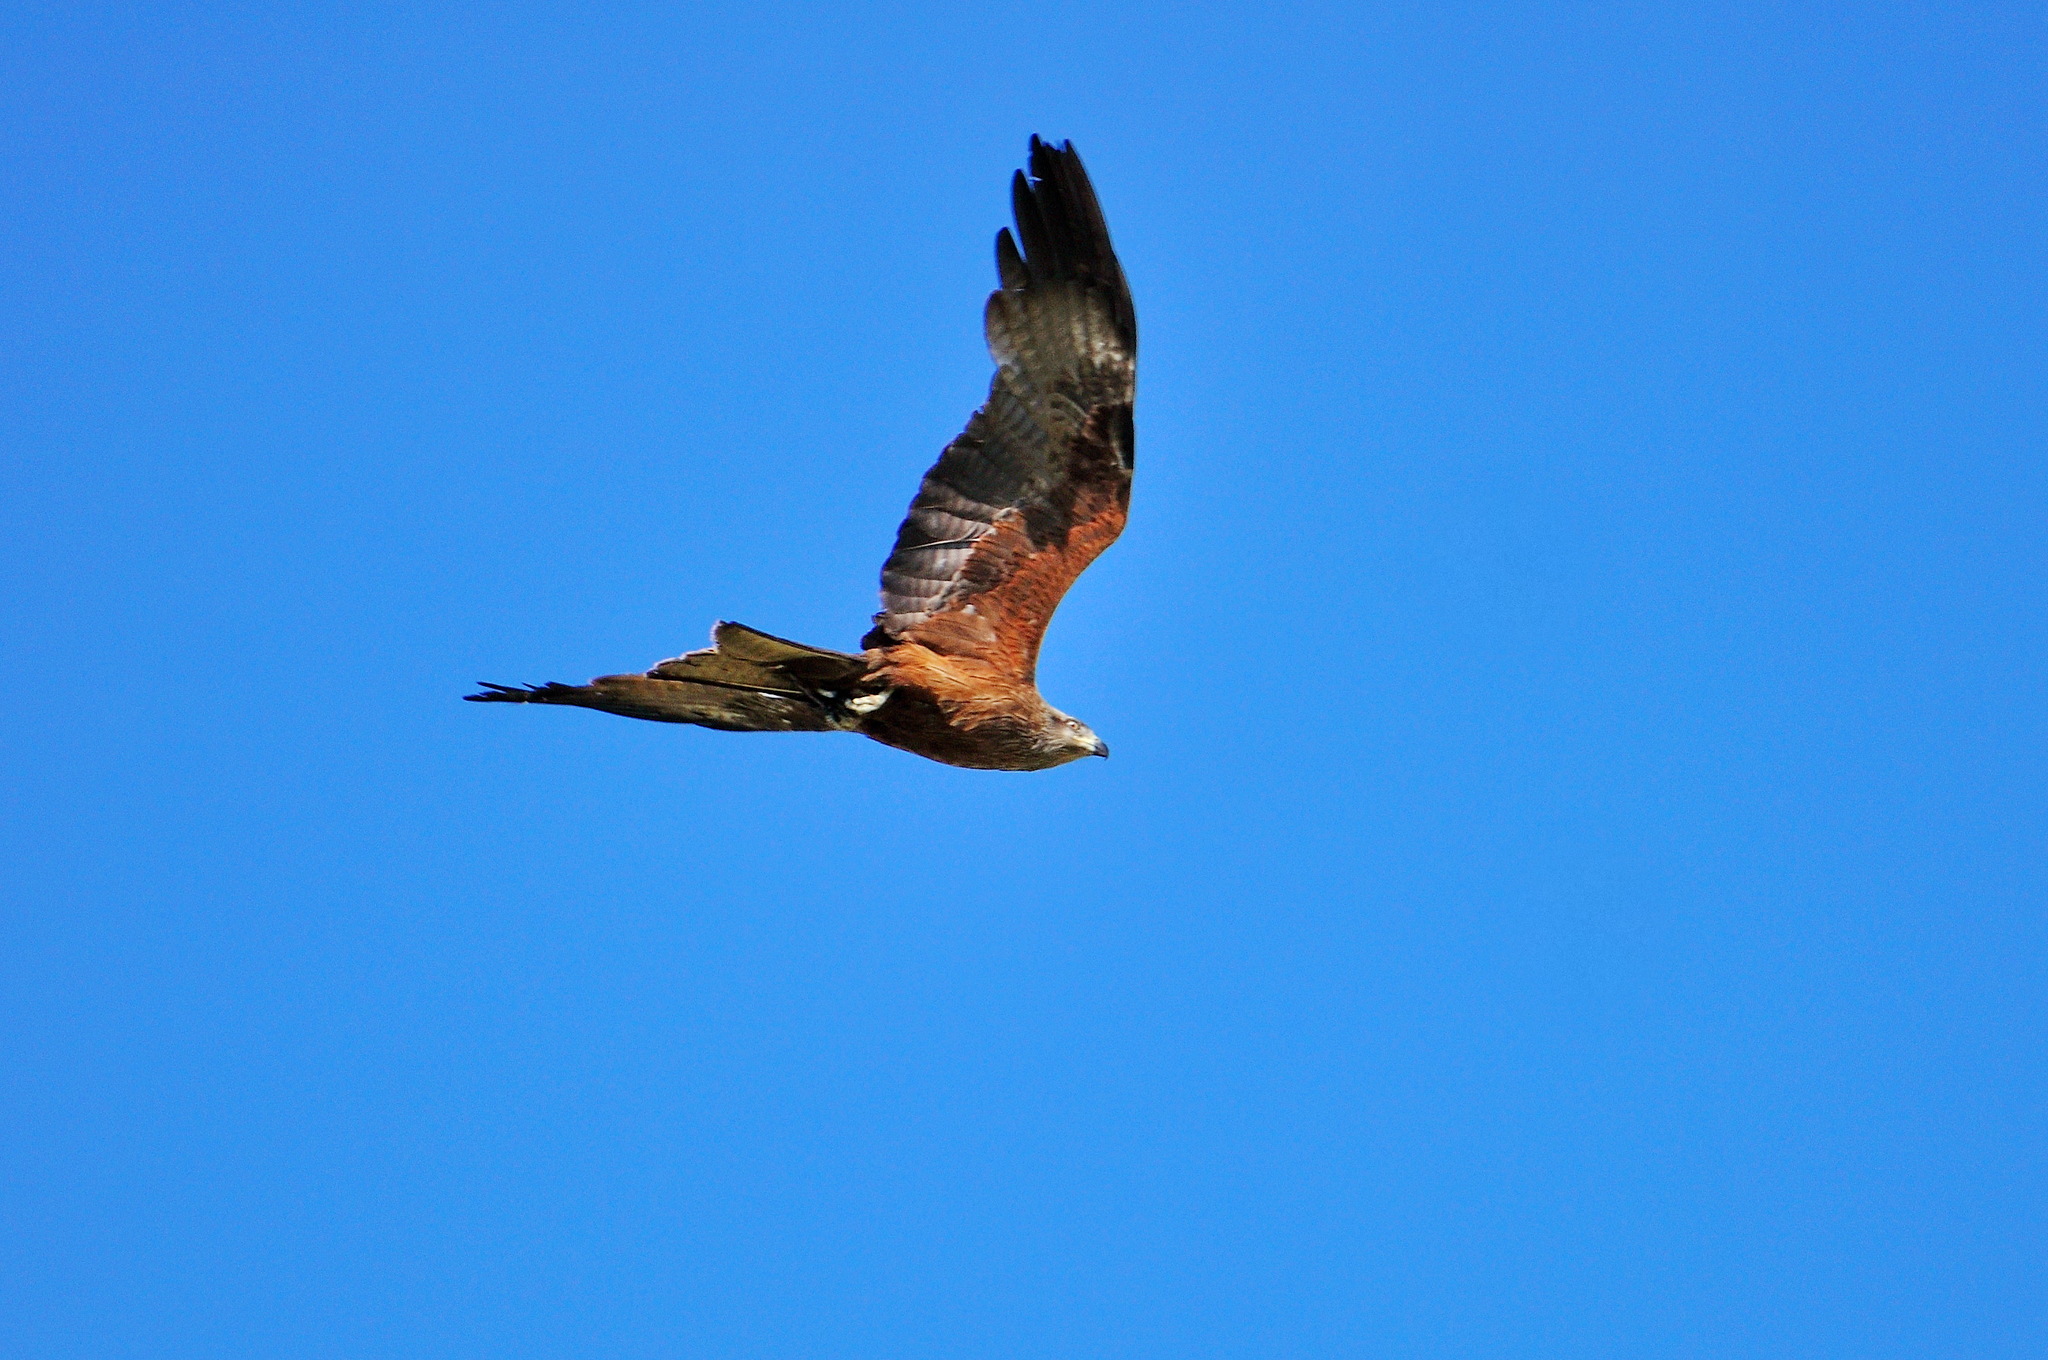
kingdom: Animalia
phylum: Chordata
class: Aves
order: Accipitriformes
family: Accipitridae
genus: Milvus
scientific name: Milvus migrans
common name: Black kite
